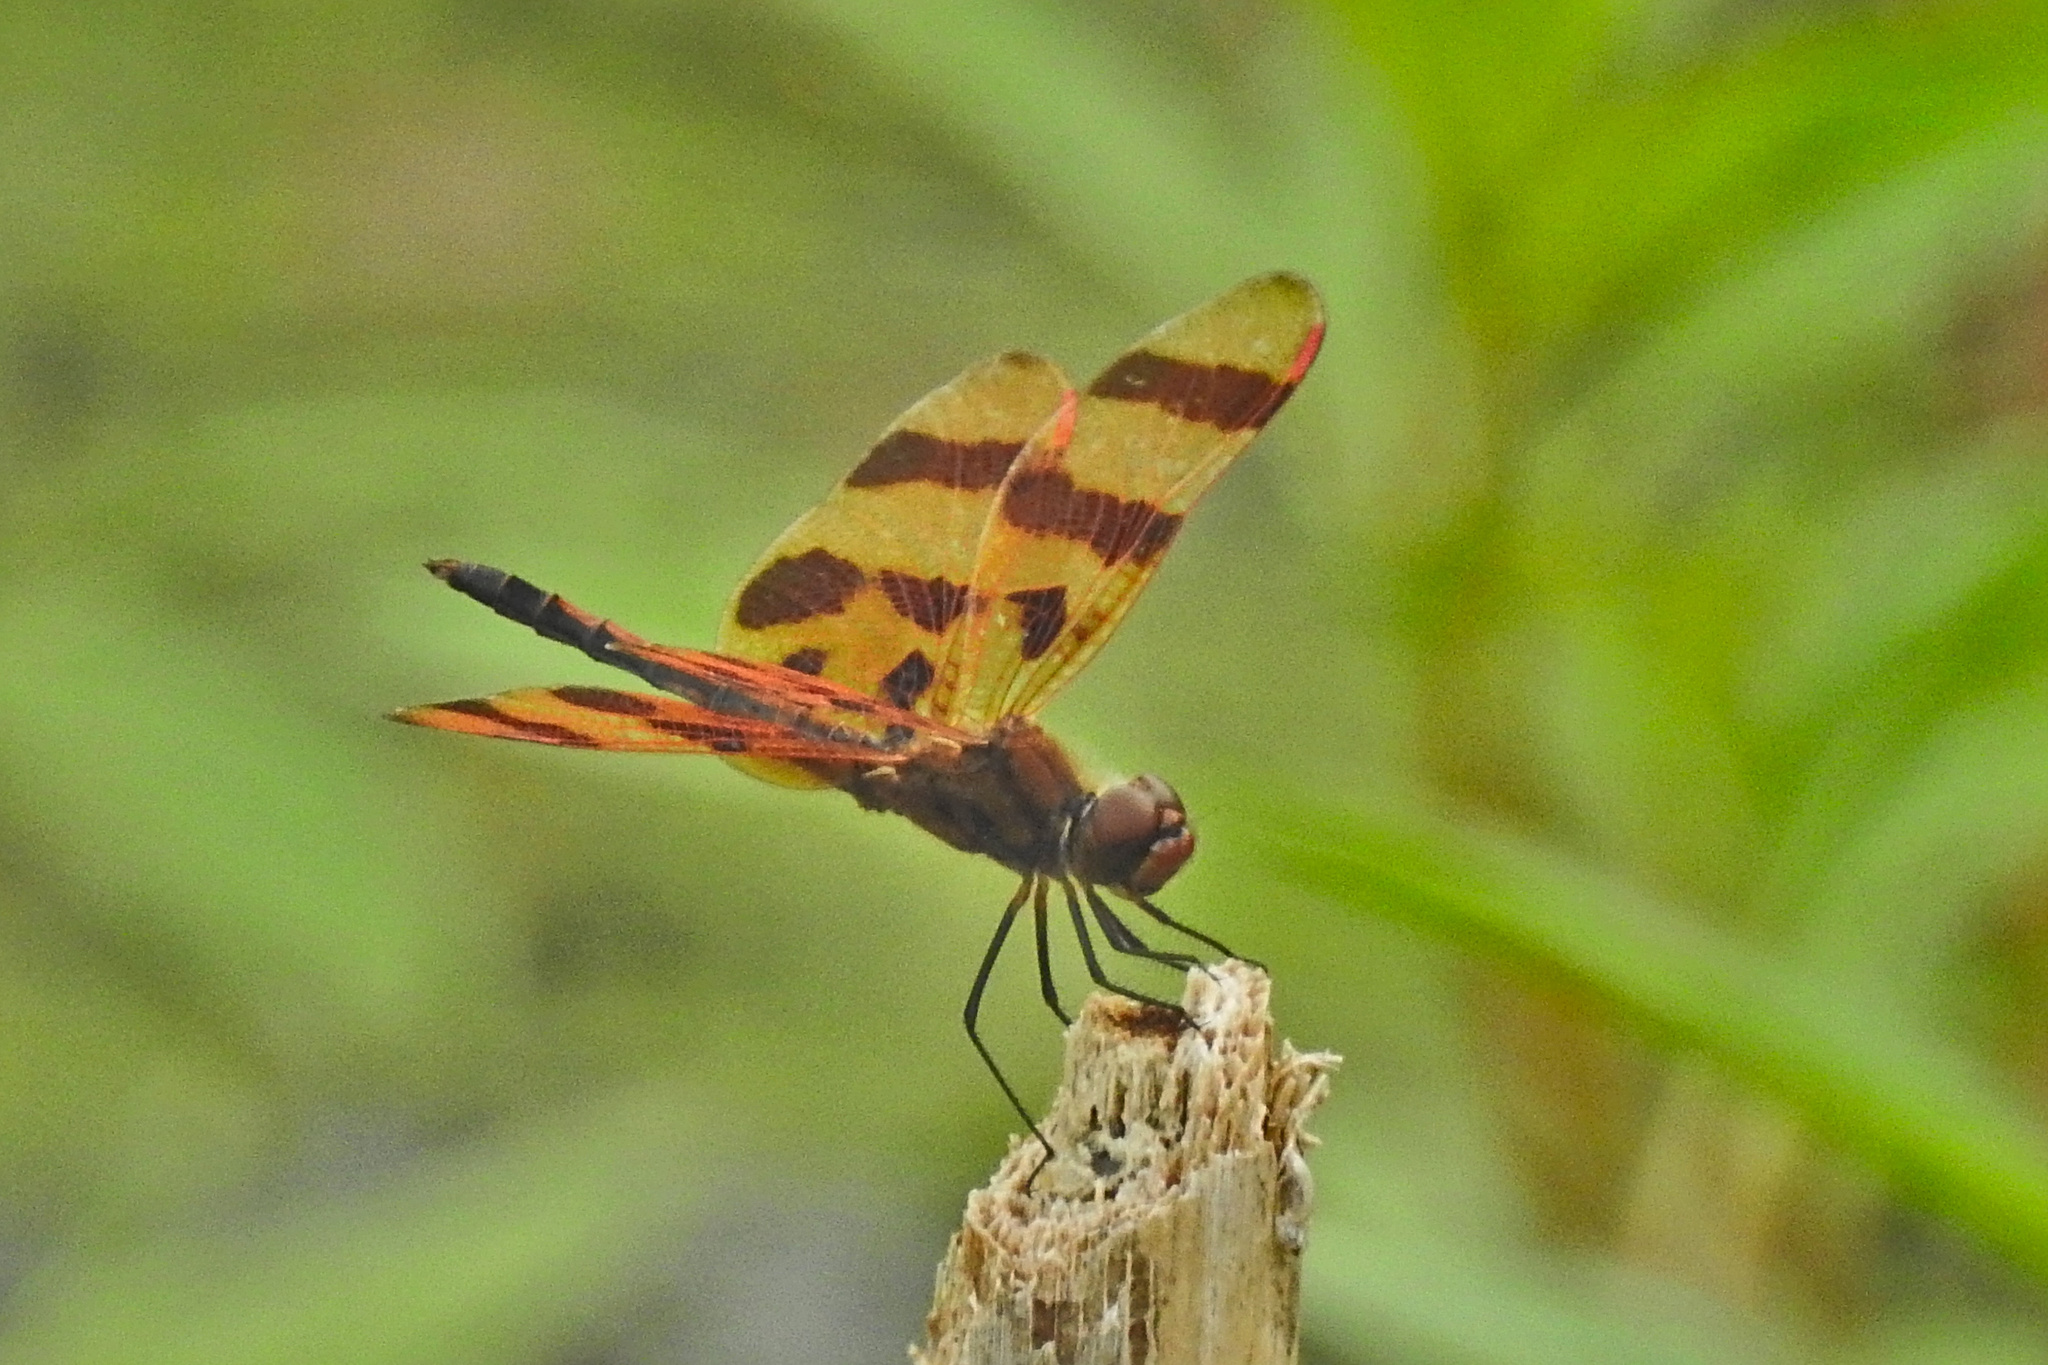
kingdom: Animalia
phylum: Arthropoda
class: Insecta
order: Odonata
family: Libellulidae
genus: Celithemis
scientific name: Celithemis eponina
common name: Halloween pennant
